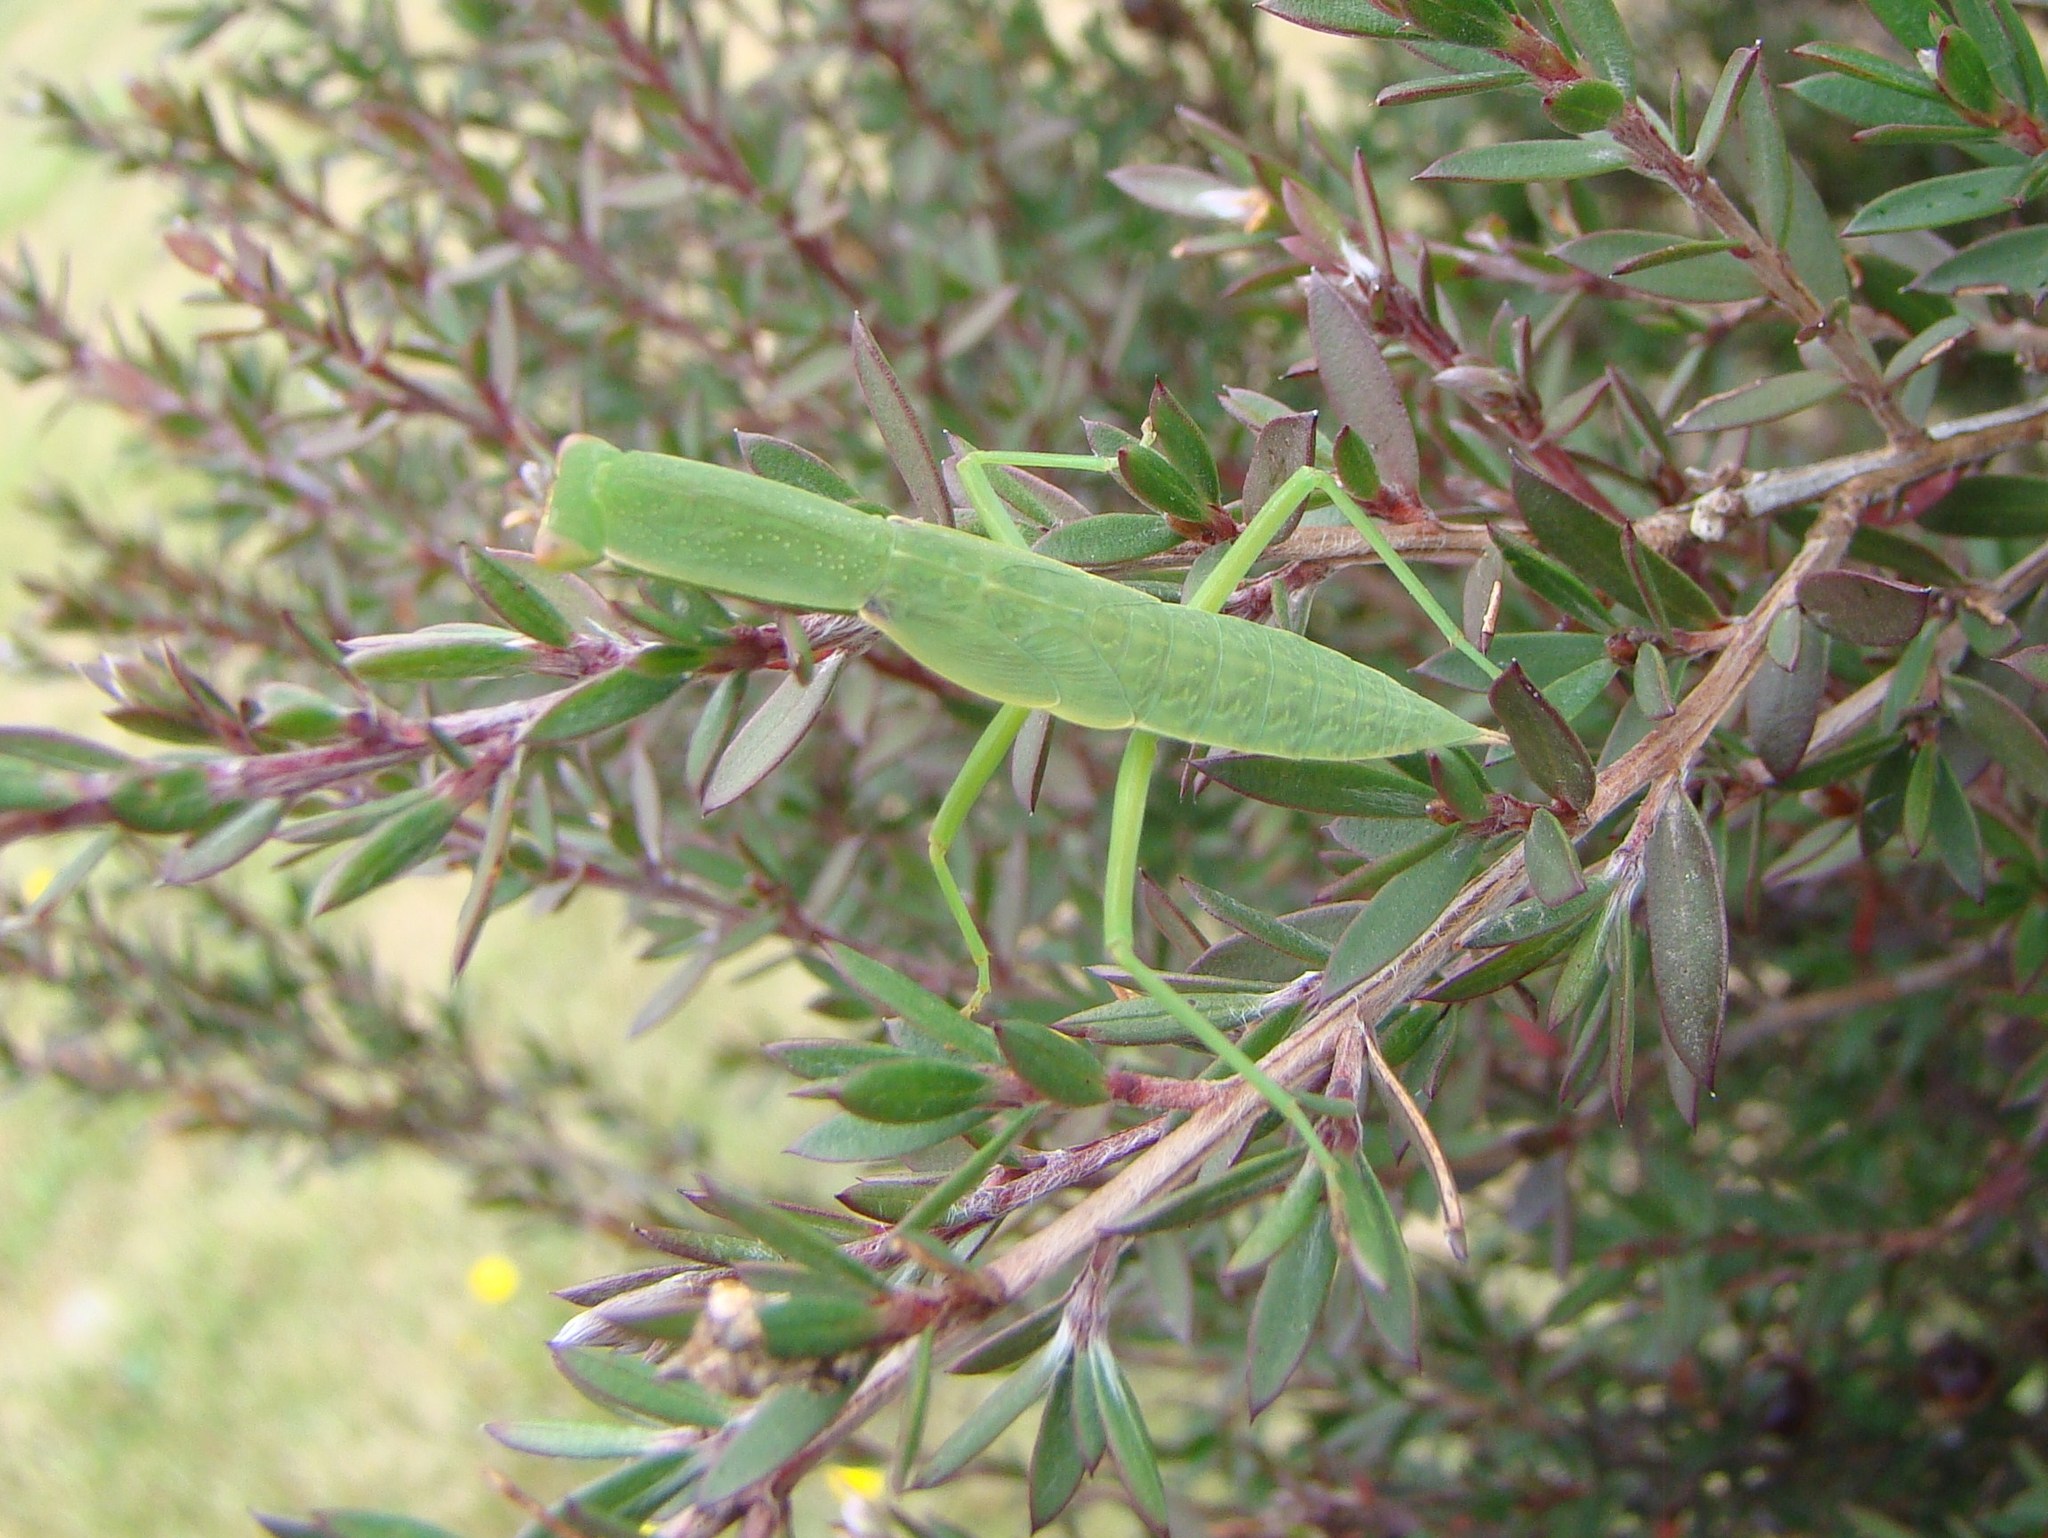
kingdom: Animalia
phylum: Arthropoda
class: Insecta
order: Mantodea
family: Mantidae
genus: Orthodera
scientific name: Orthodera novaezealandiae
